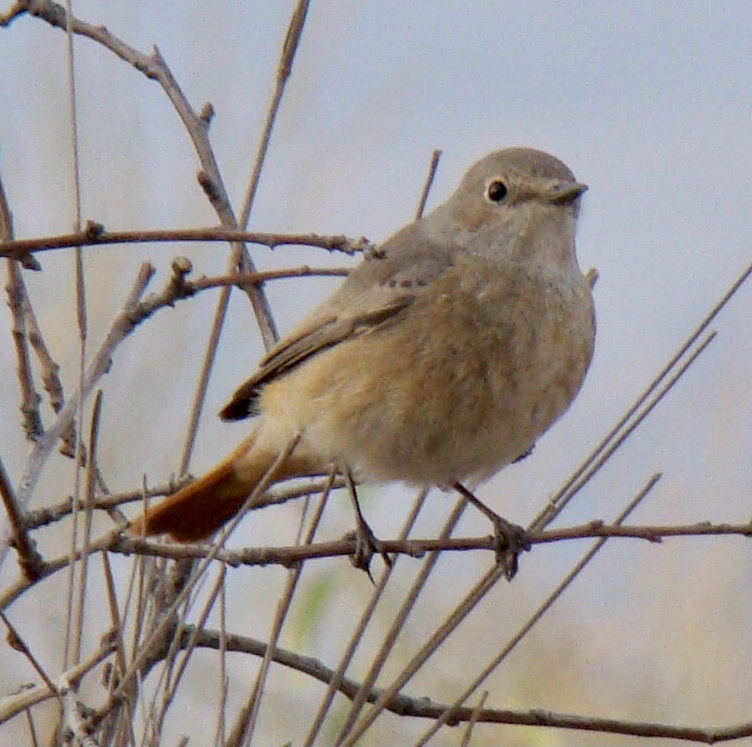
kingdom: Animalia
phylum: Chordata
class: Aves
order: Passeriformes
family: Muscicapidae
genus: Phoenicurus
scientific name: Phoenicurus phoenicurus
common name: Common redstart
